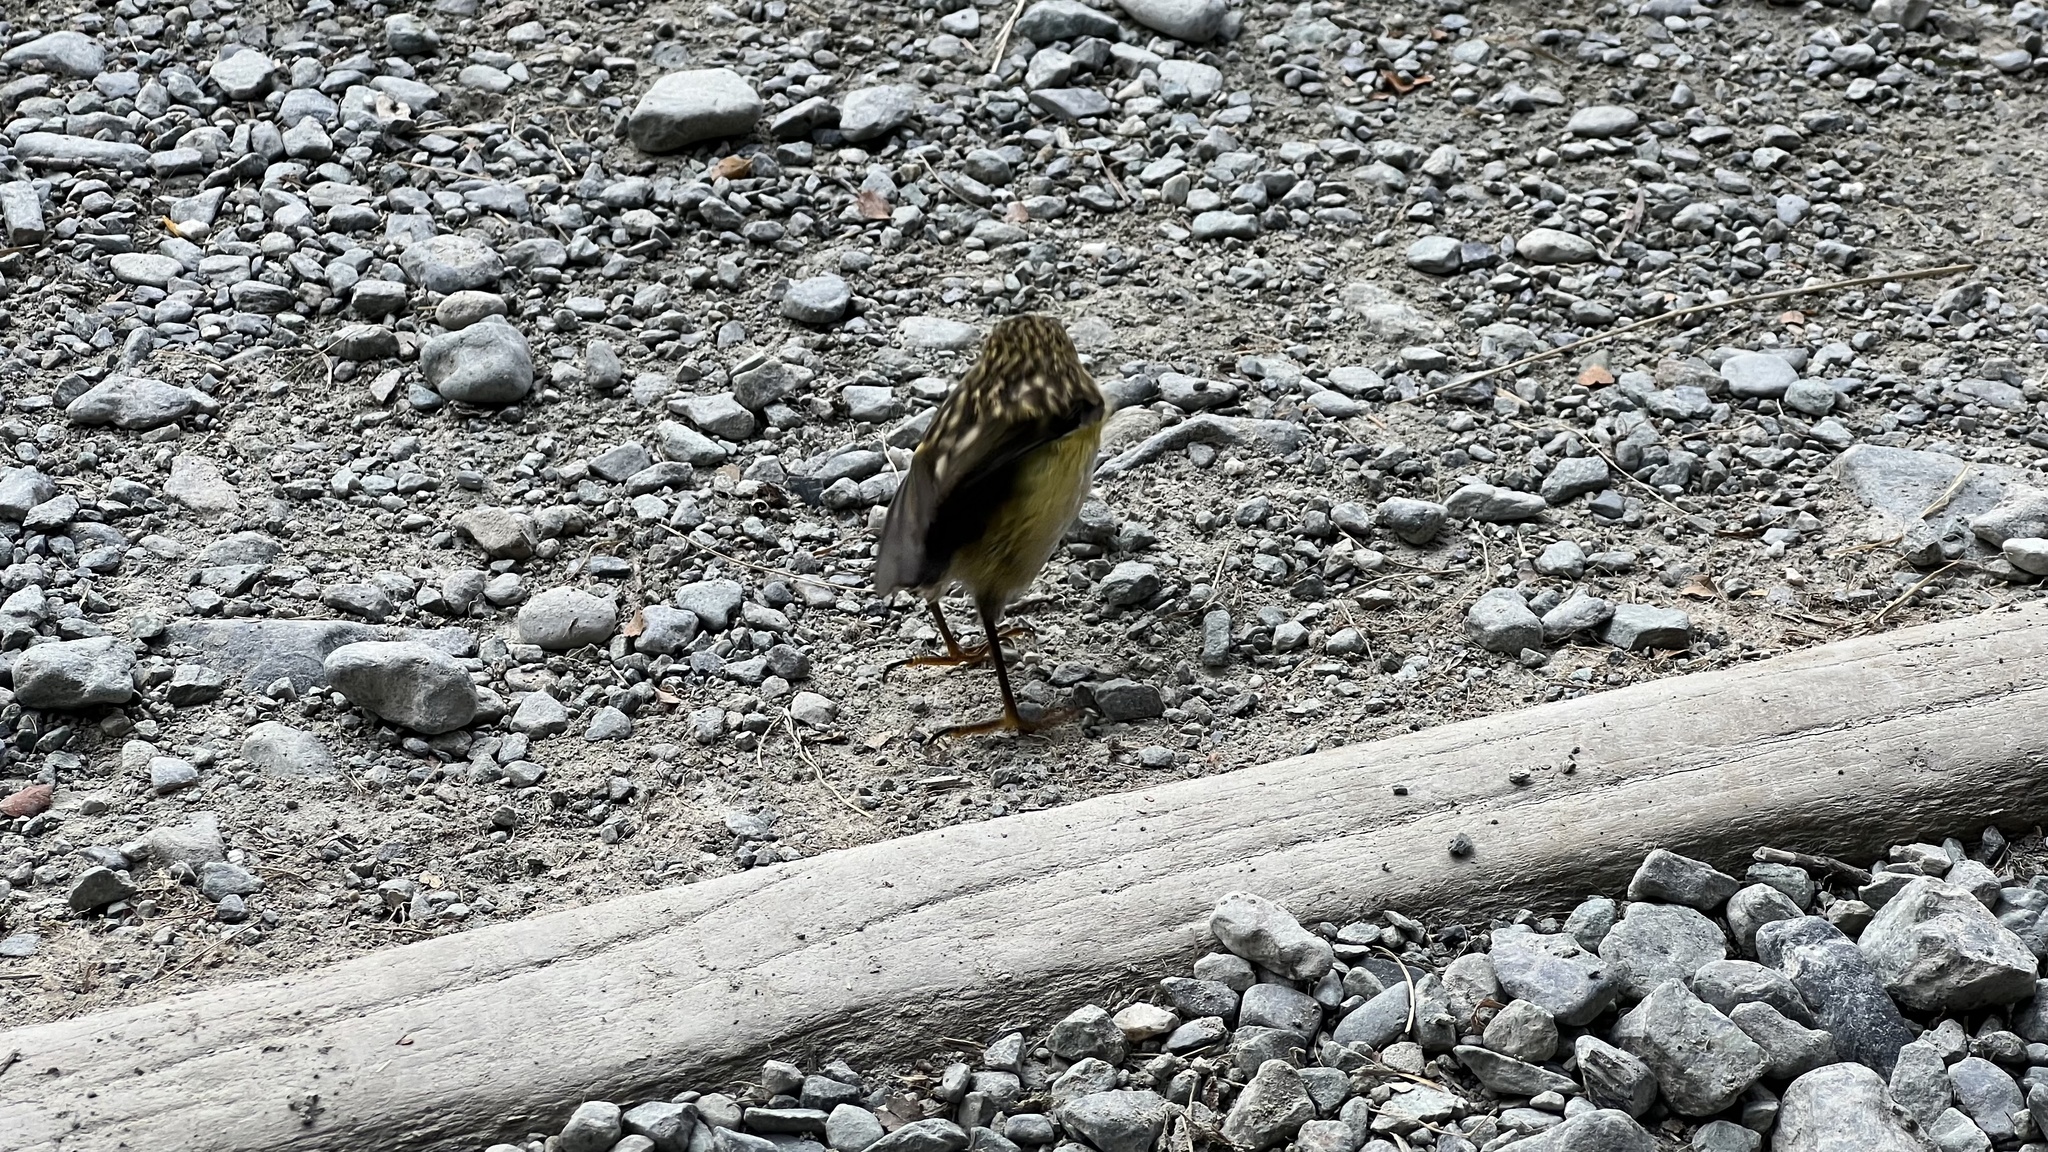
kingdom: Animalia
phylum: Chordata
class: Aves
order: Passeriformes
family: Acanthisittidae
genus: Acanthisitta
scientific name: Acanthisitta chloris
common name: Rifleman
